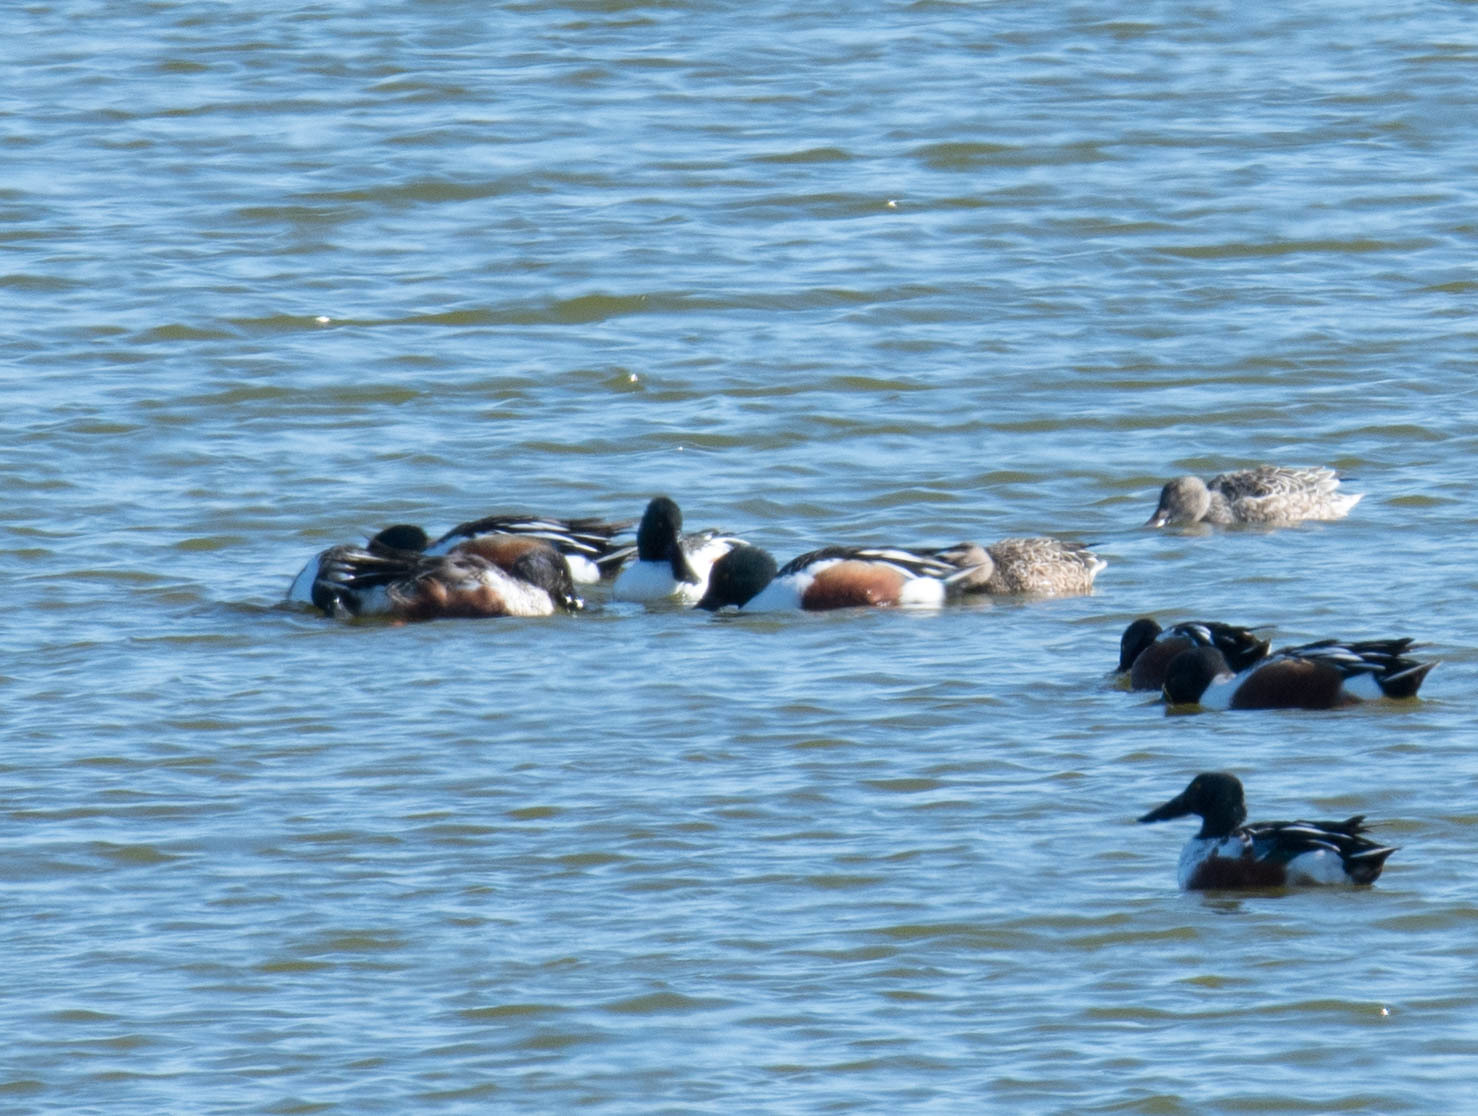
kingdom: Animalia
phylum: Chordata
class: Aves
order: Anseriformes
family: Anatidae
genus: Spatula
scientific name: Spatula clypeata
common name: Northern shoveler
